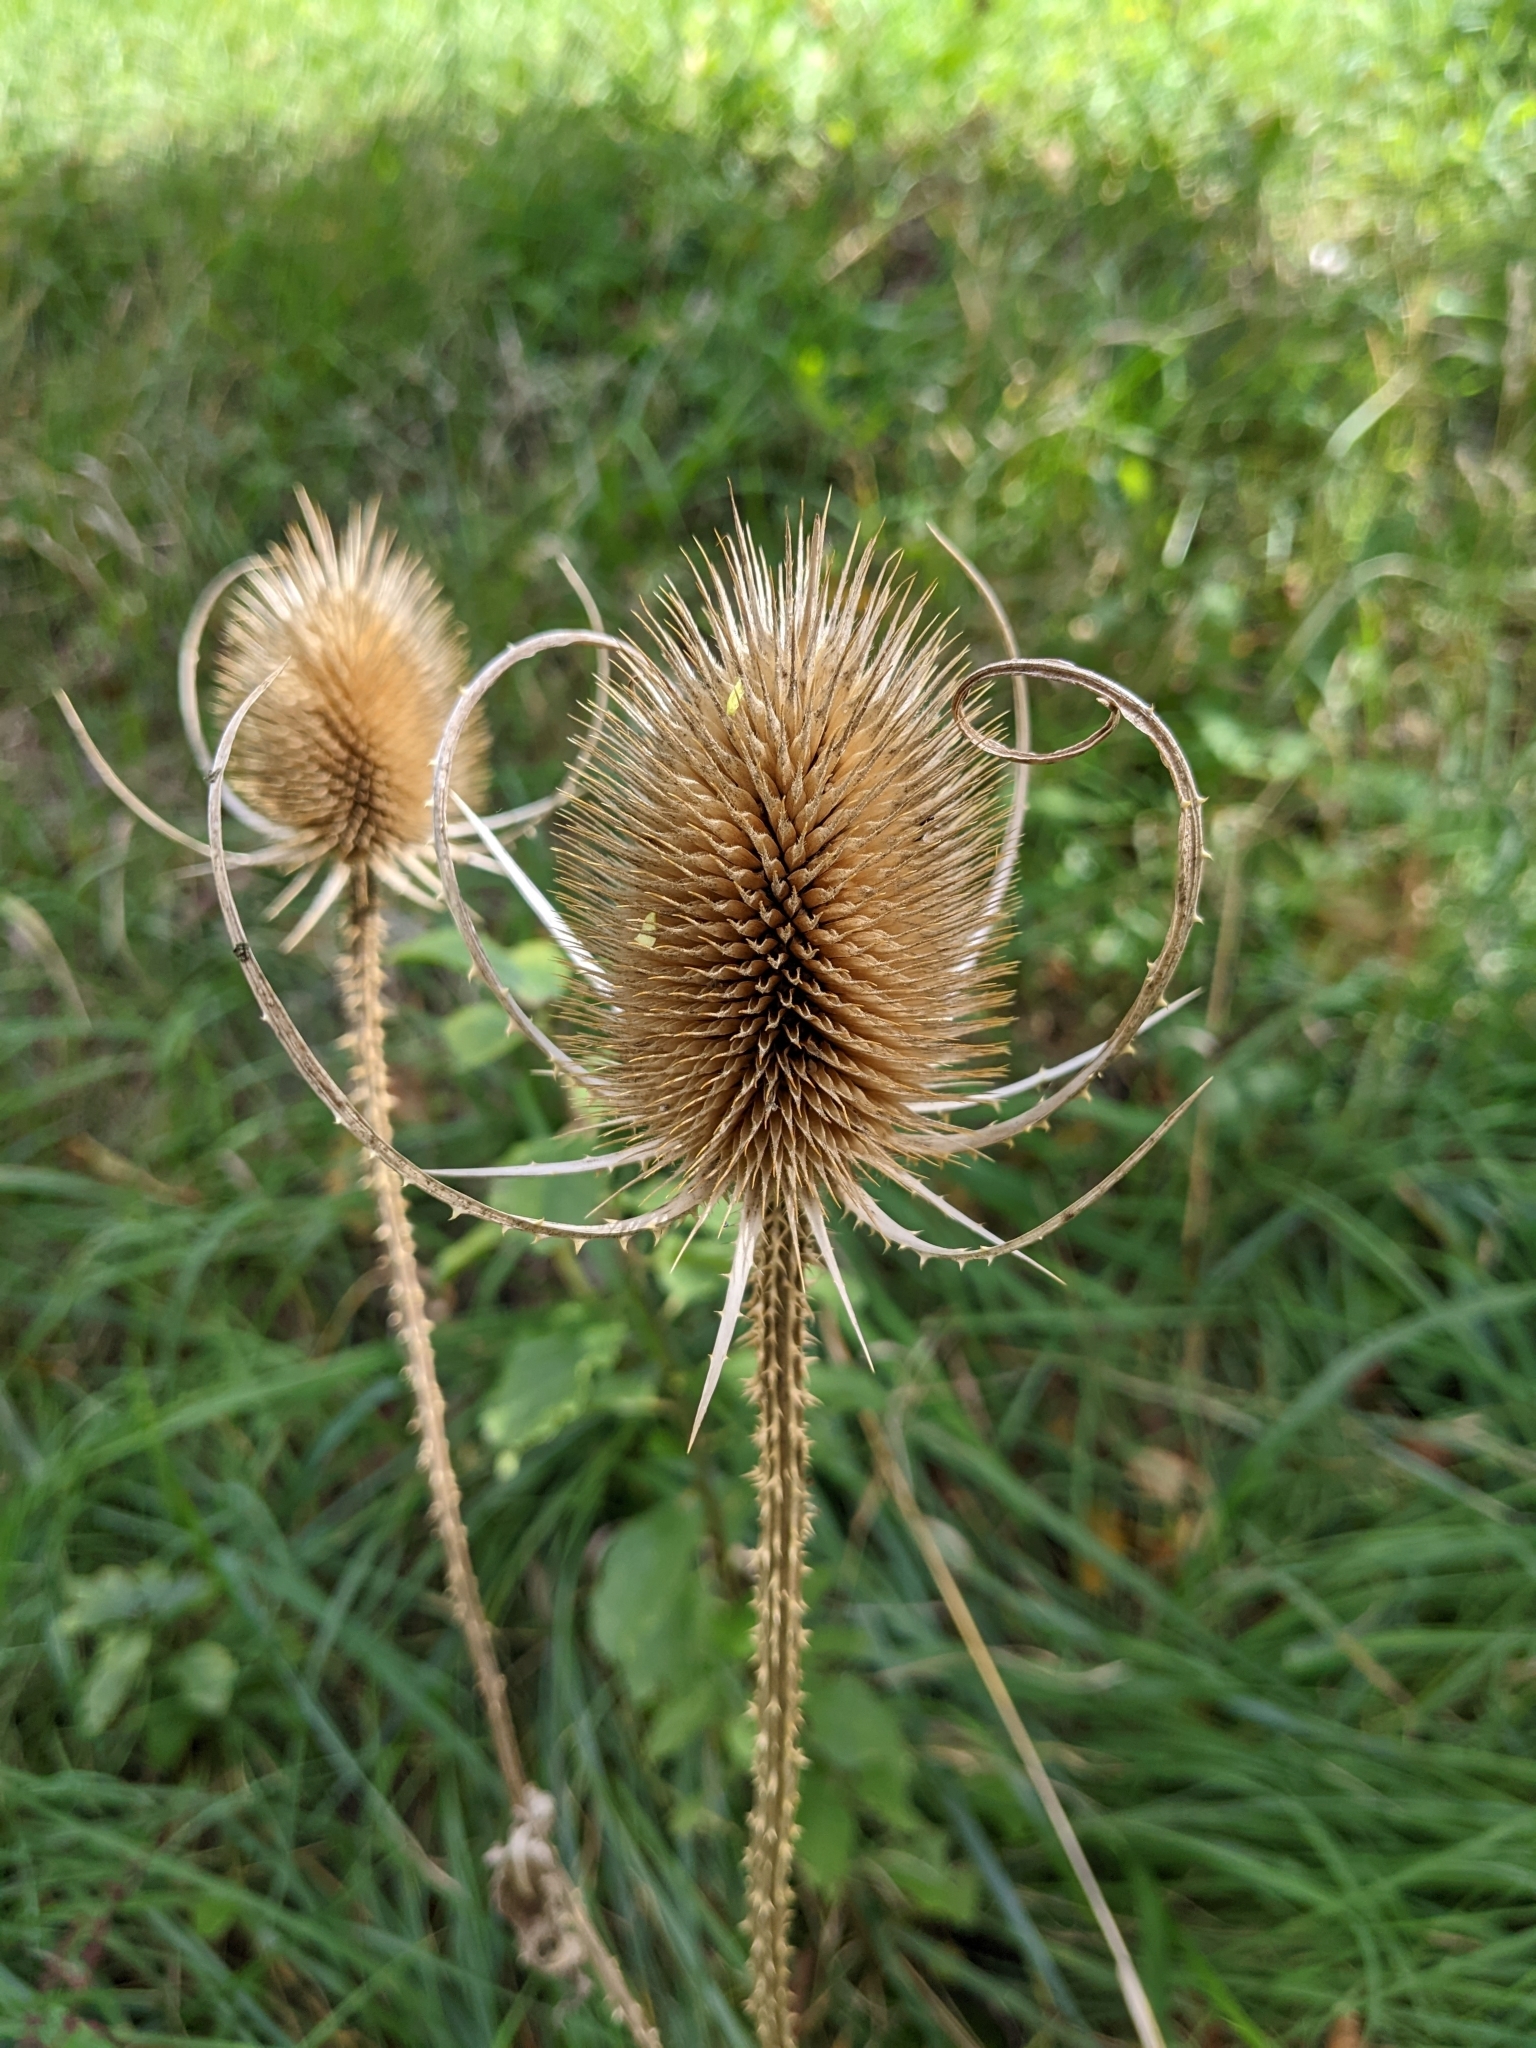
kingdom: Plantae
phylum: Tracheophyta
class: Magnoliopsida
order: Dipsacales
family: Caprifoliaceae
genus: Dipsacus
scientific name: Dipsacus fullonum
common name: Teasel
